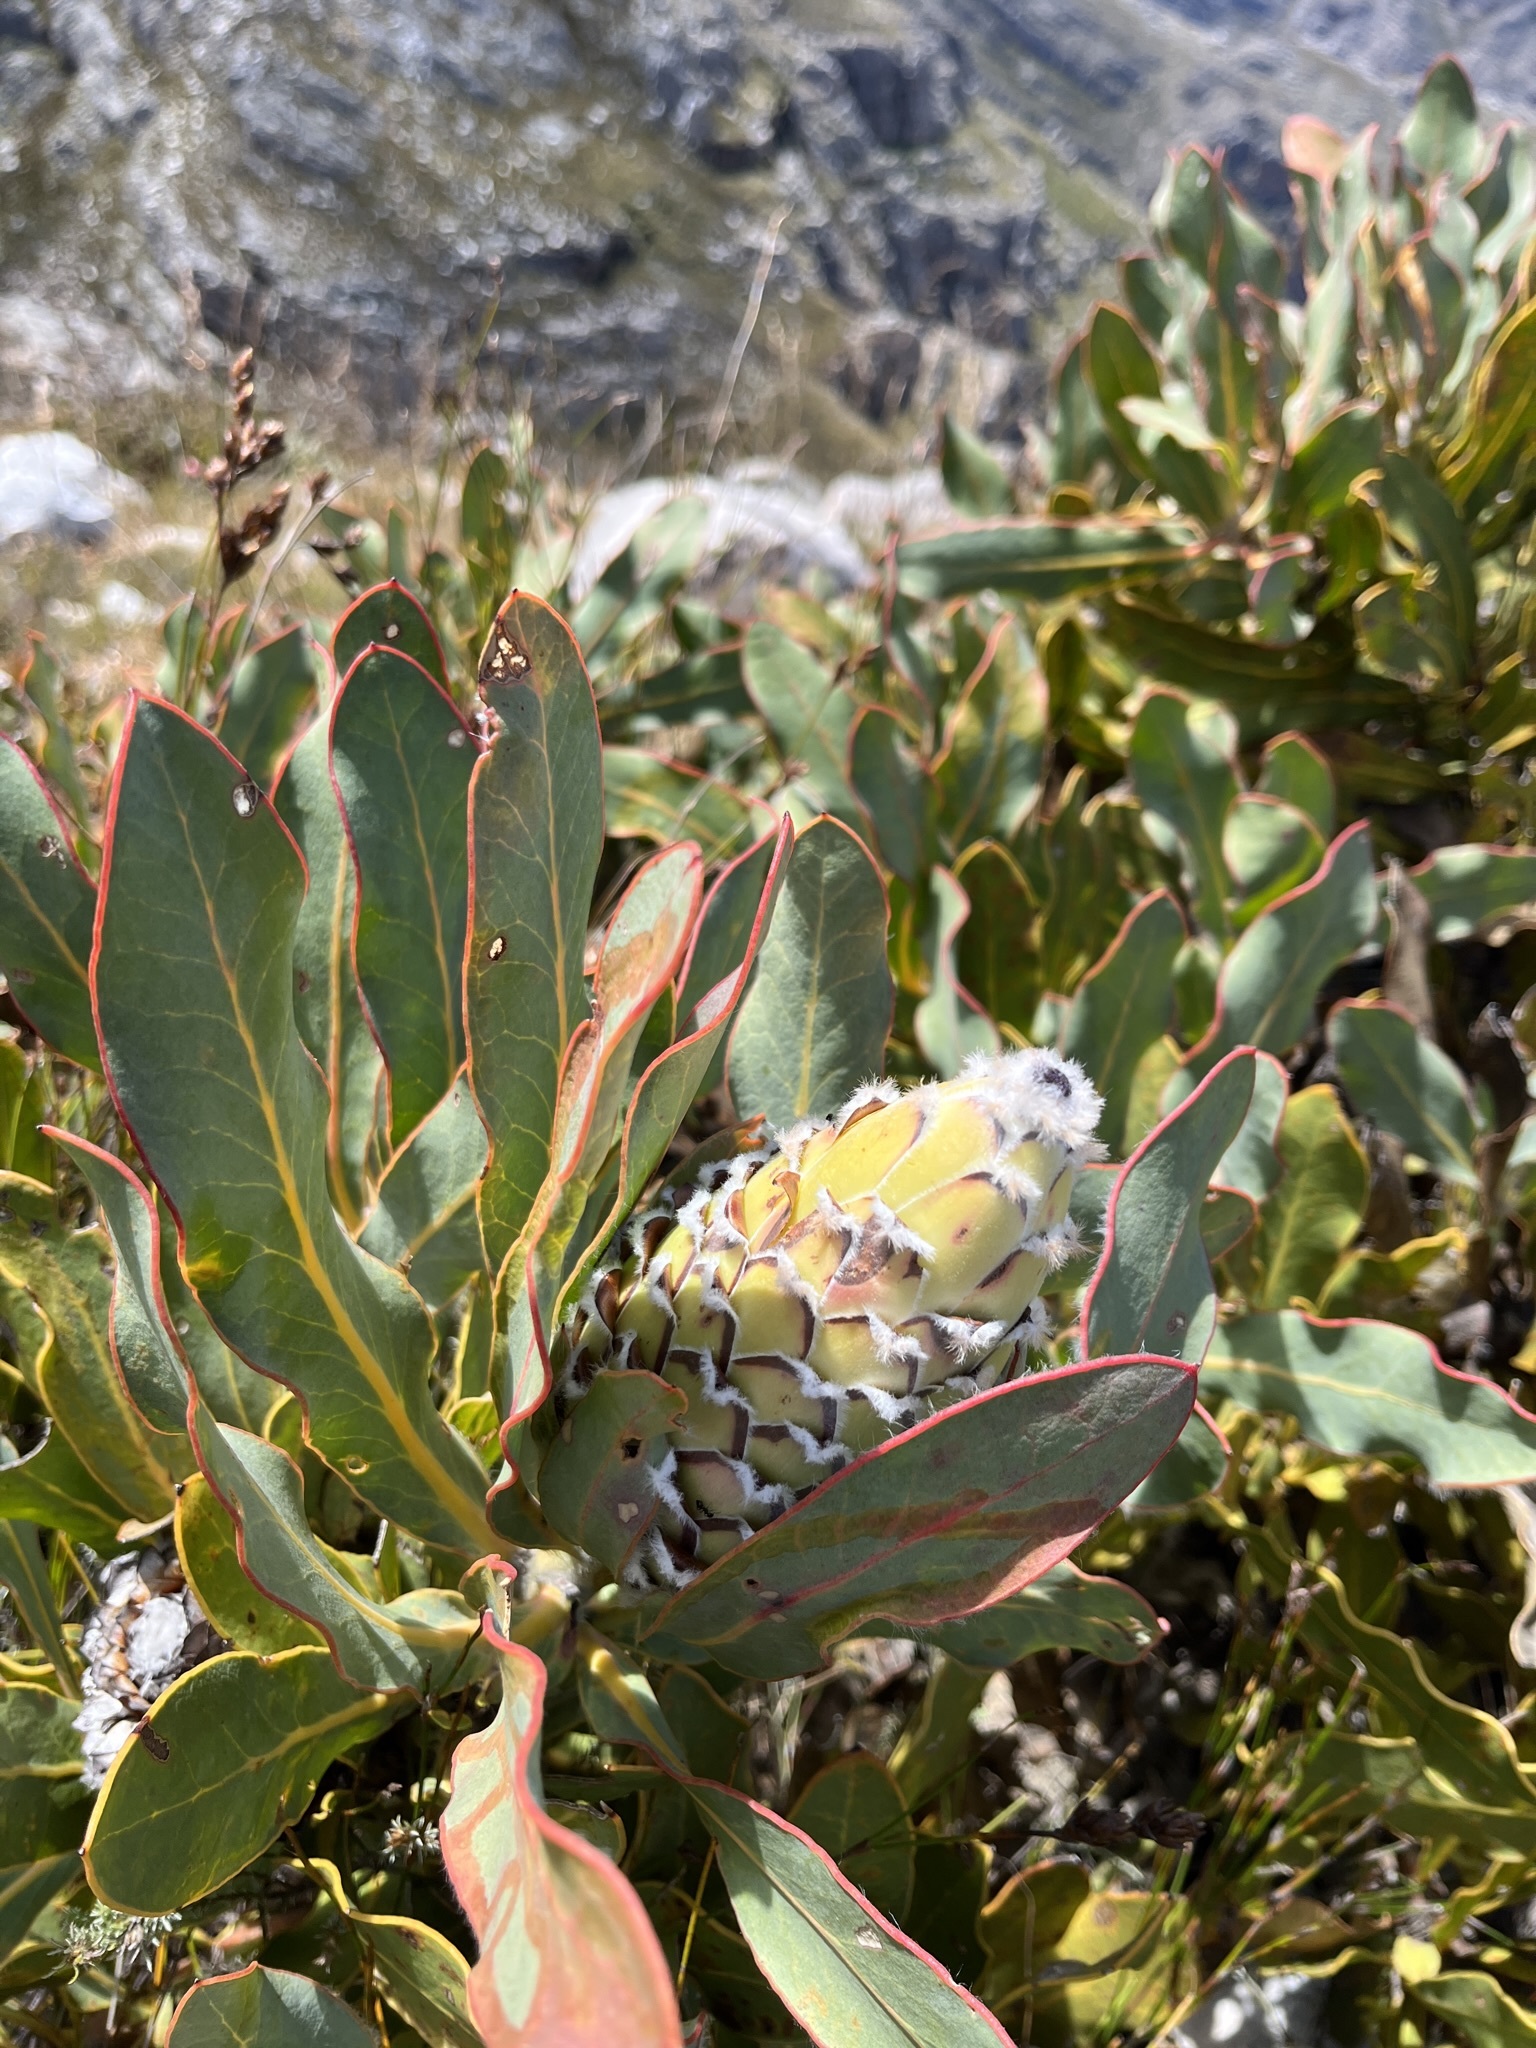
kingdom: Plantae
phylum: Tracheophyta
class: Magnoliopsida
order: Proteales
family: Proteaceae
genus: Protea
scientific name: Protea magnifica
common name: Bearded sugarbush
